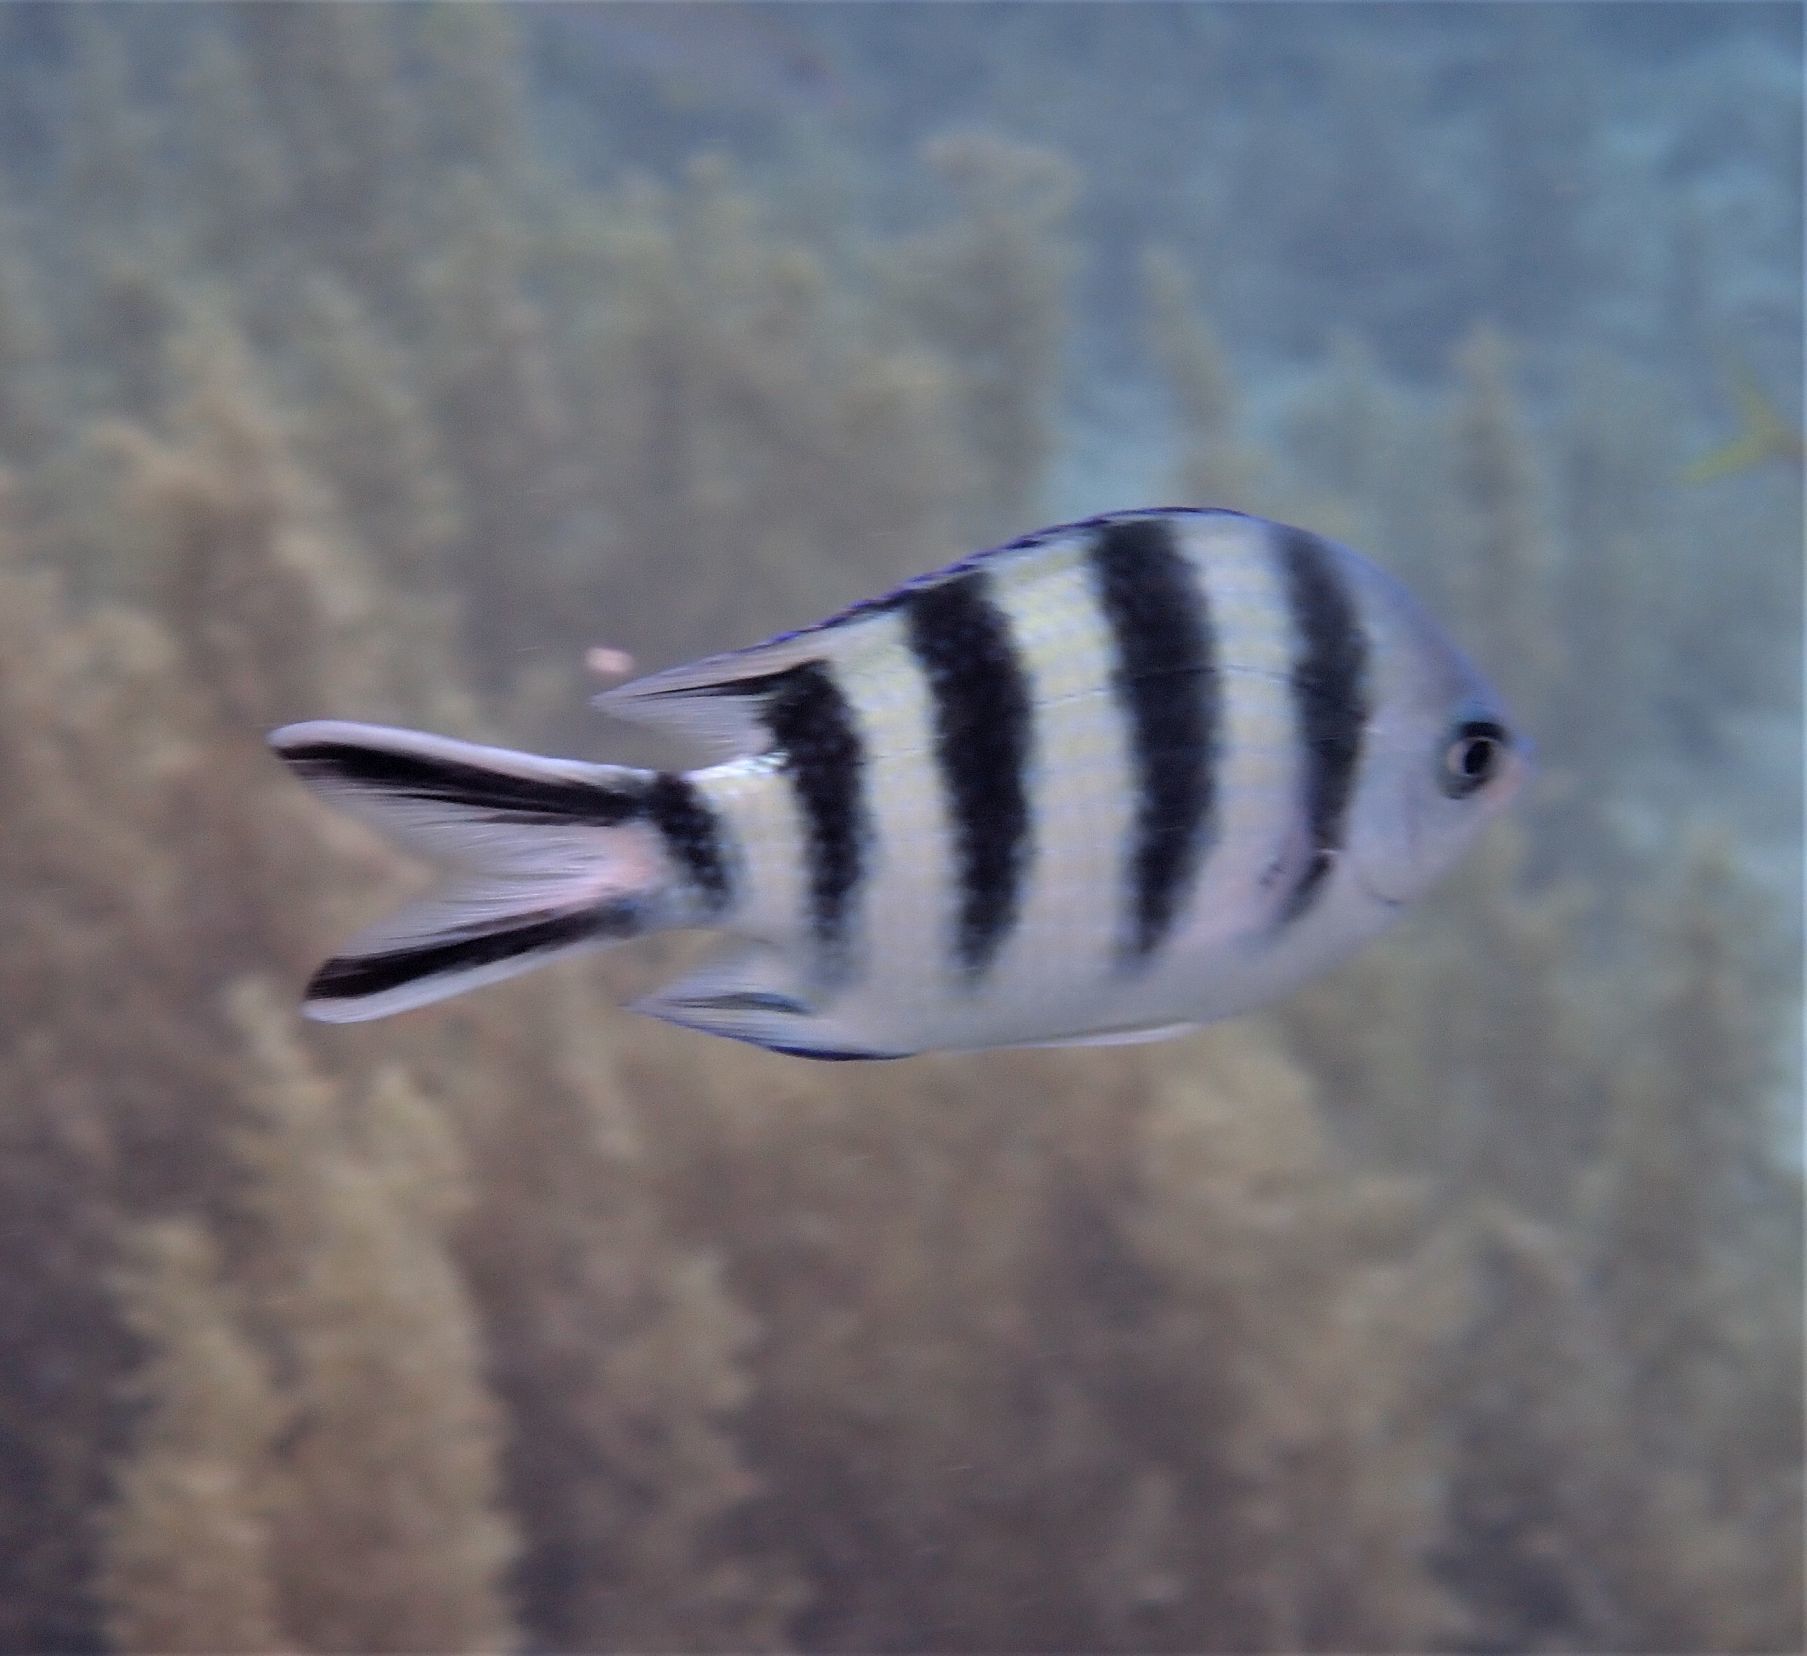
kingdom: Animalia
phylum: Chordata
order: Perciformes
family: Pomacentridae
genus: Abudefduf
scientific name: Abudefduf sexfasciatus
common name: Scissortail sergeant
